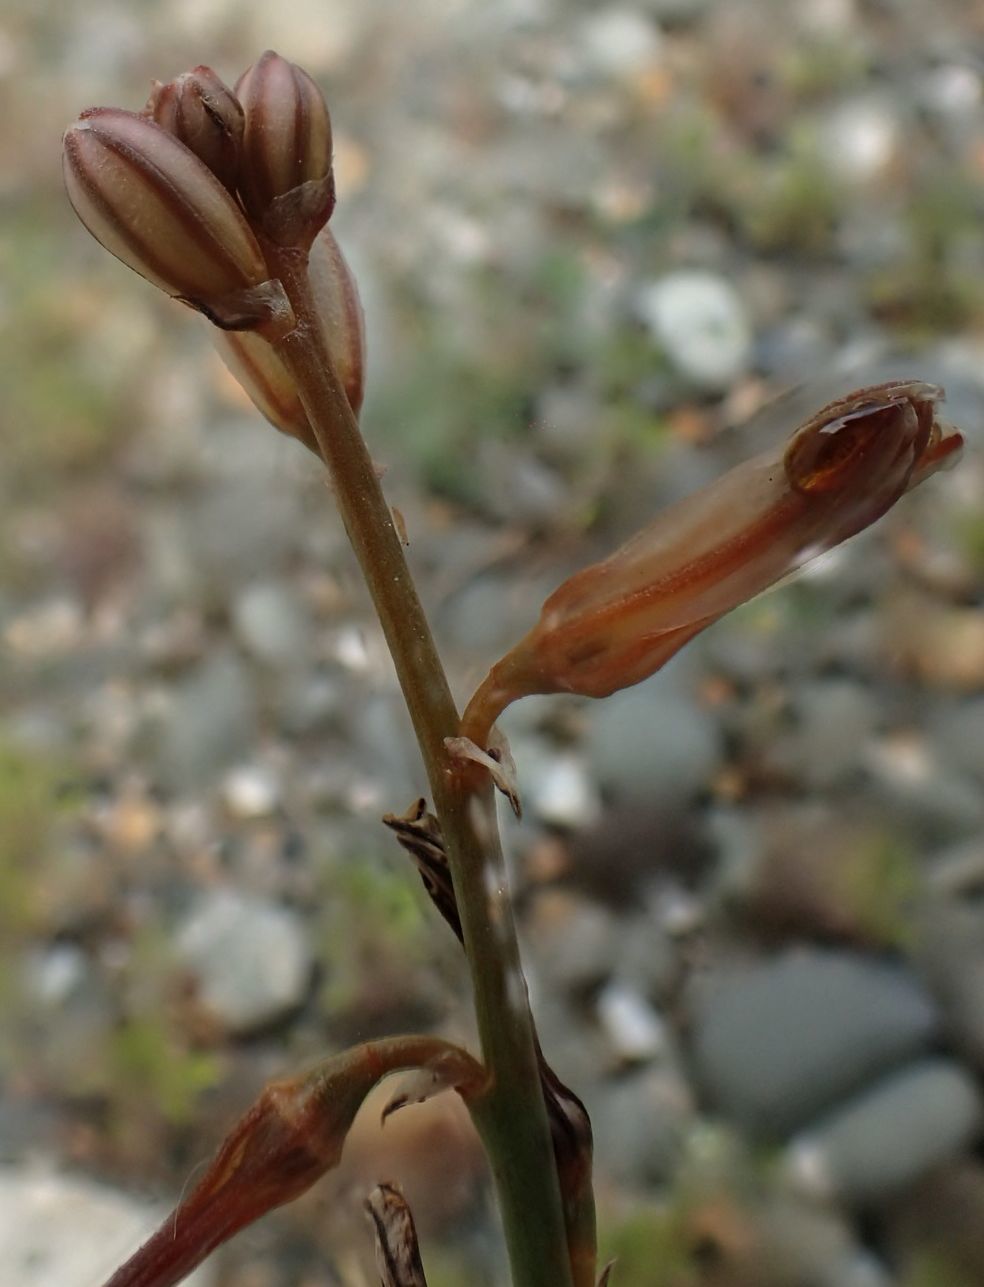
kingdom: Plantae
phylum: Tracheophyta
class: Liliopsida
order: Asparagales
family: Asphodelaceae
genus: Asphodelus
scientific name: Asphodelus fistulosus
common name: Onionweed
